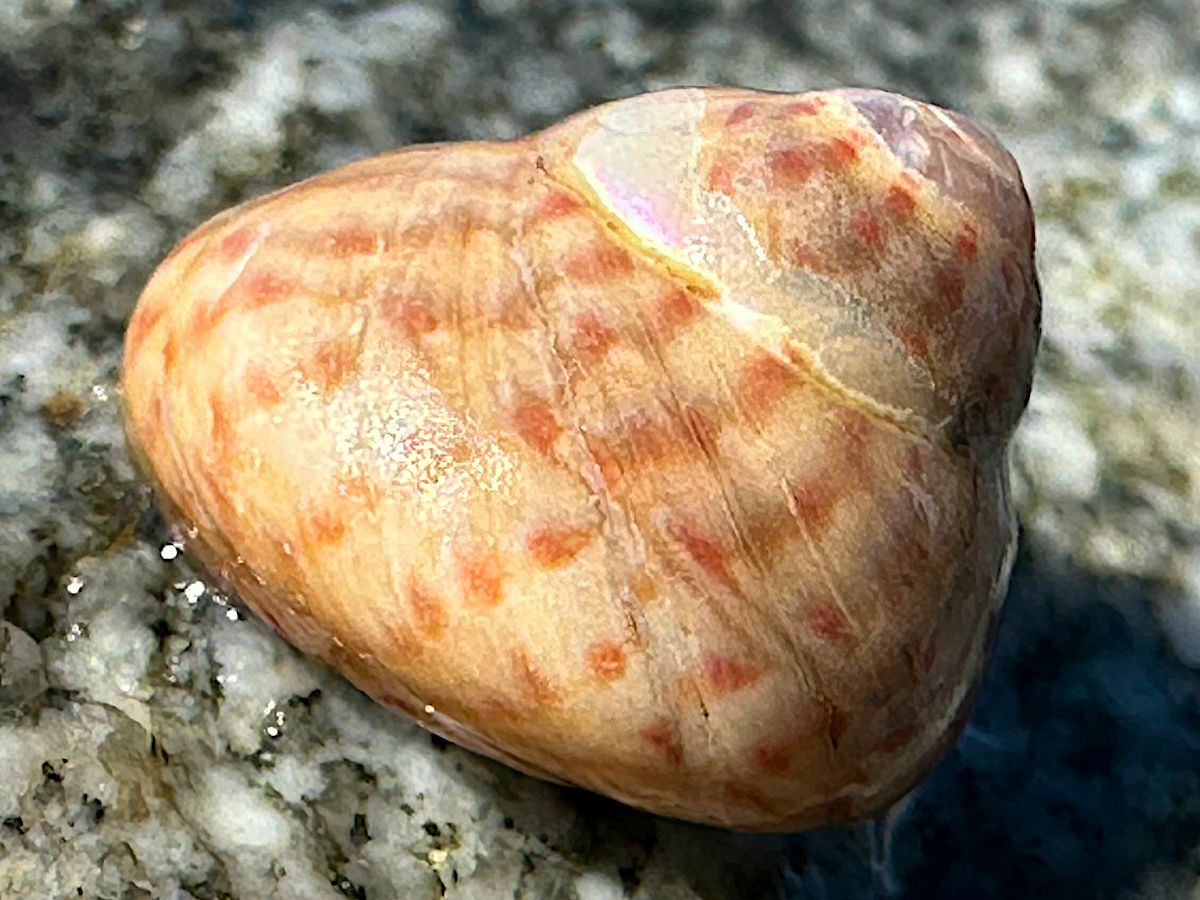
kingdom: Animalia
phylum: Mollusca
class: Gastropoda
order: Trochida
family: Trochidae
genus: Phorcus
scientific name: Phorcus mutabilis
